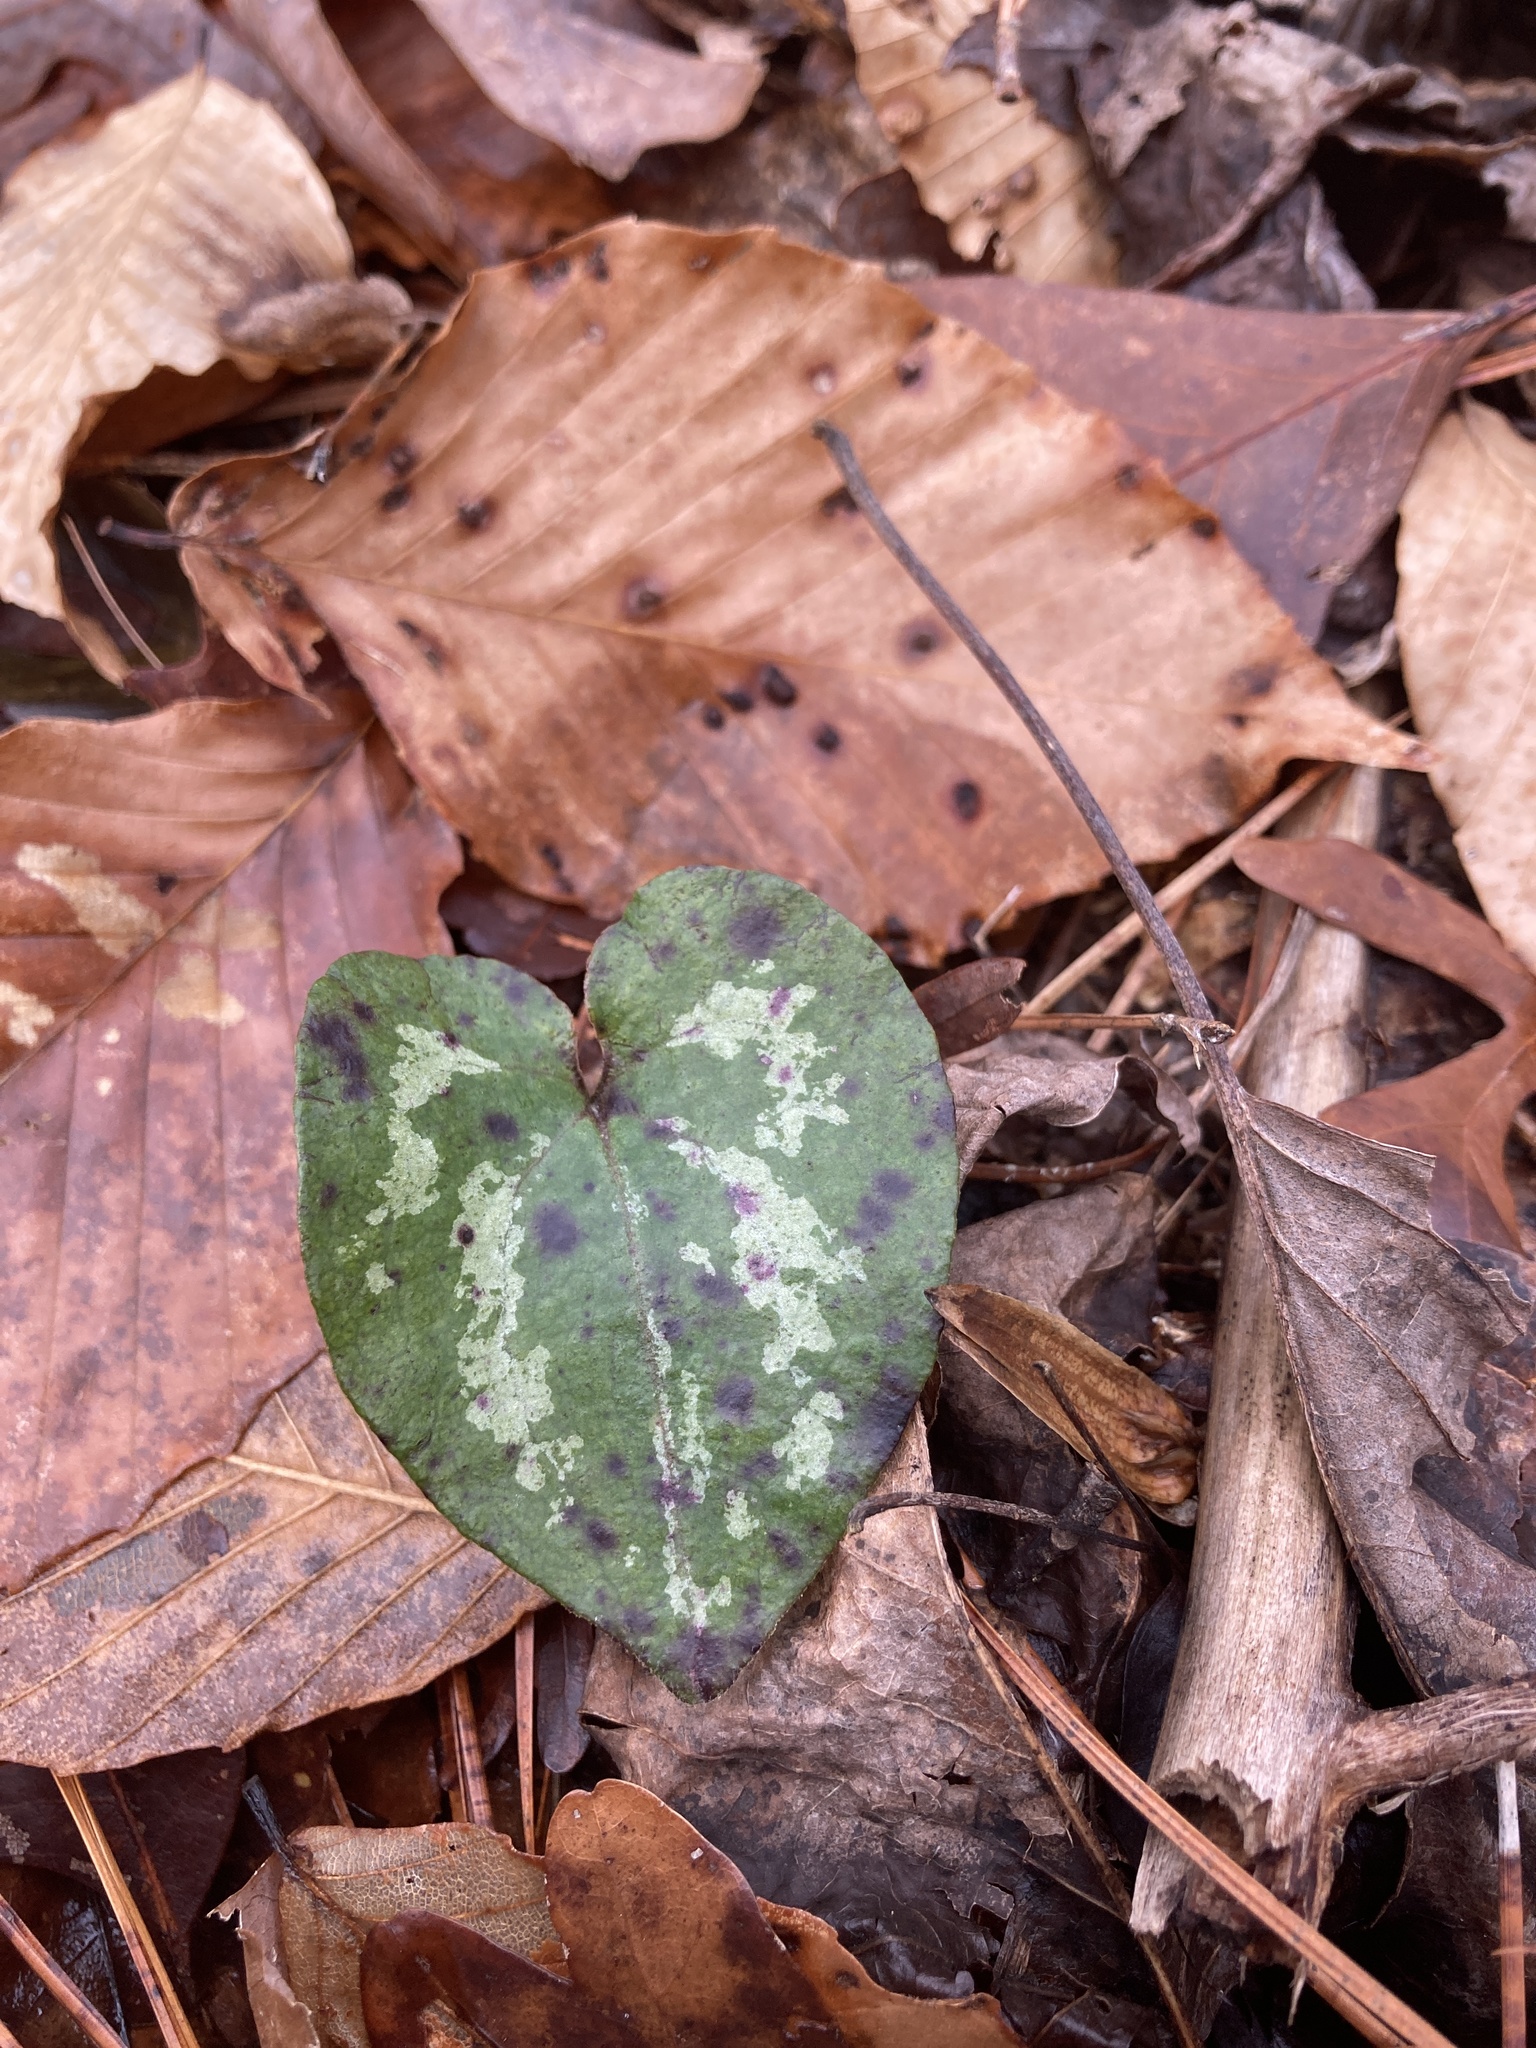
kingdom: Plantae
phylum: Tracheophyta
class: Magnoliopsida
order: Piperales
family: Aristolochiaceae
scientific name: Aristolochiaceae
